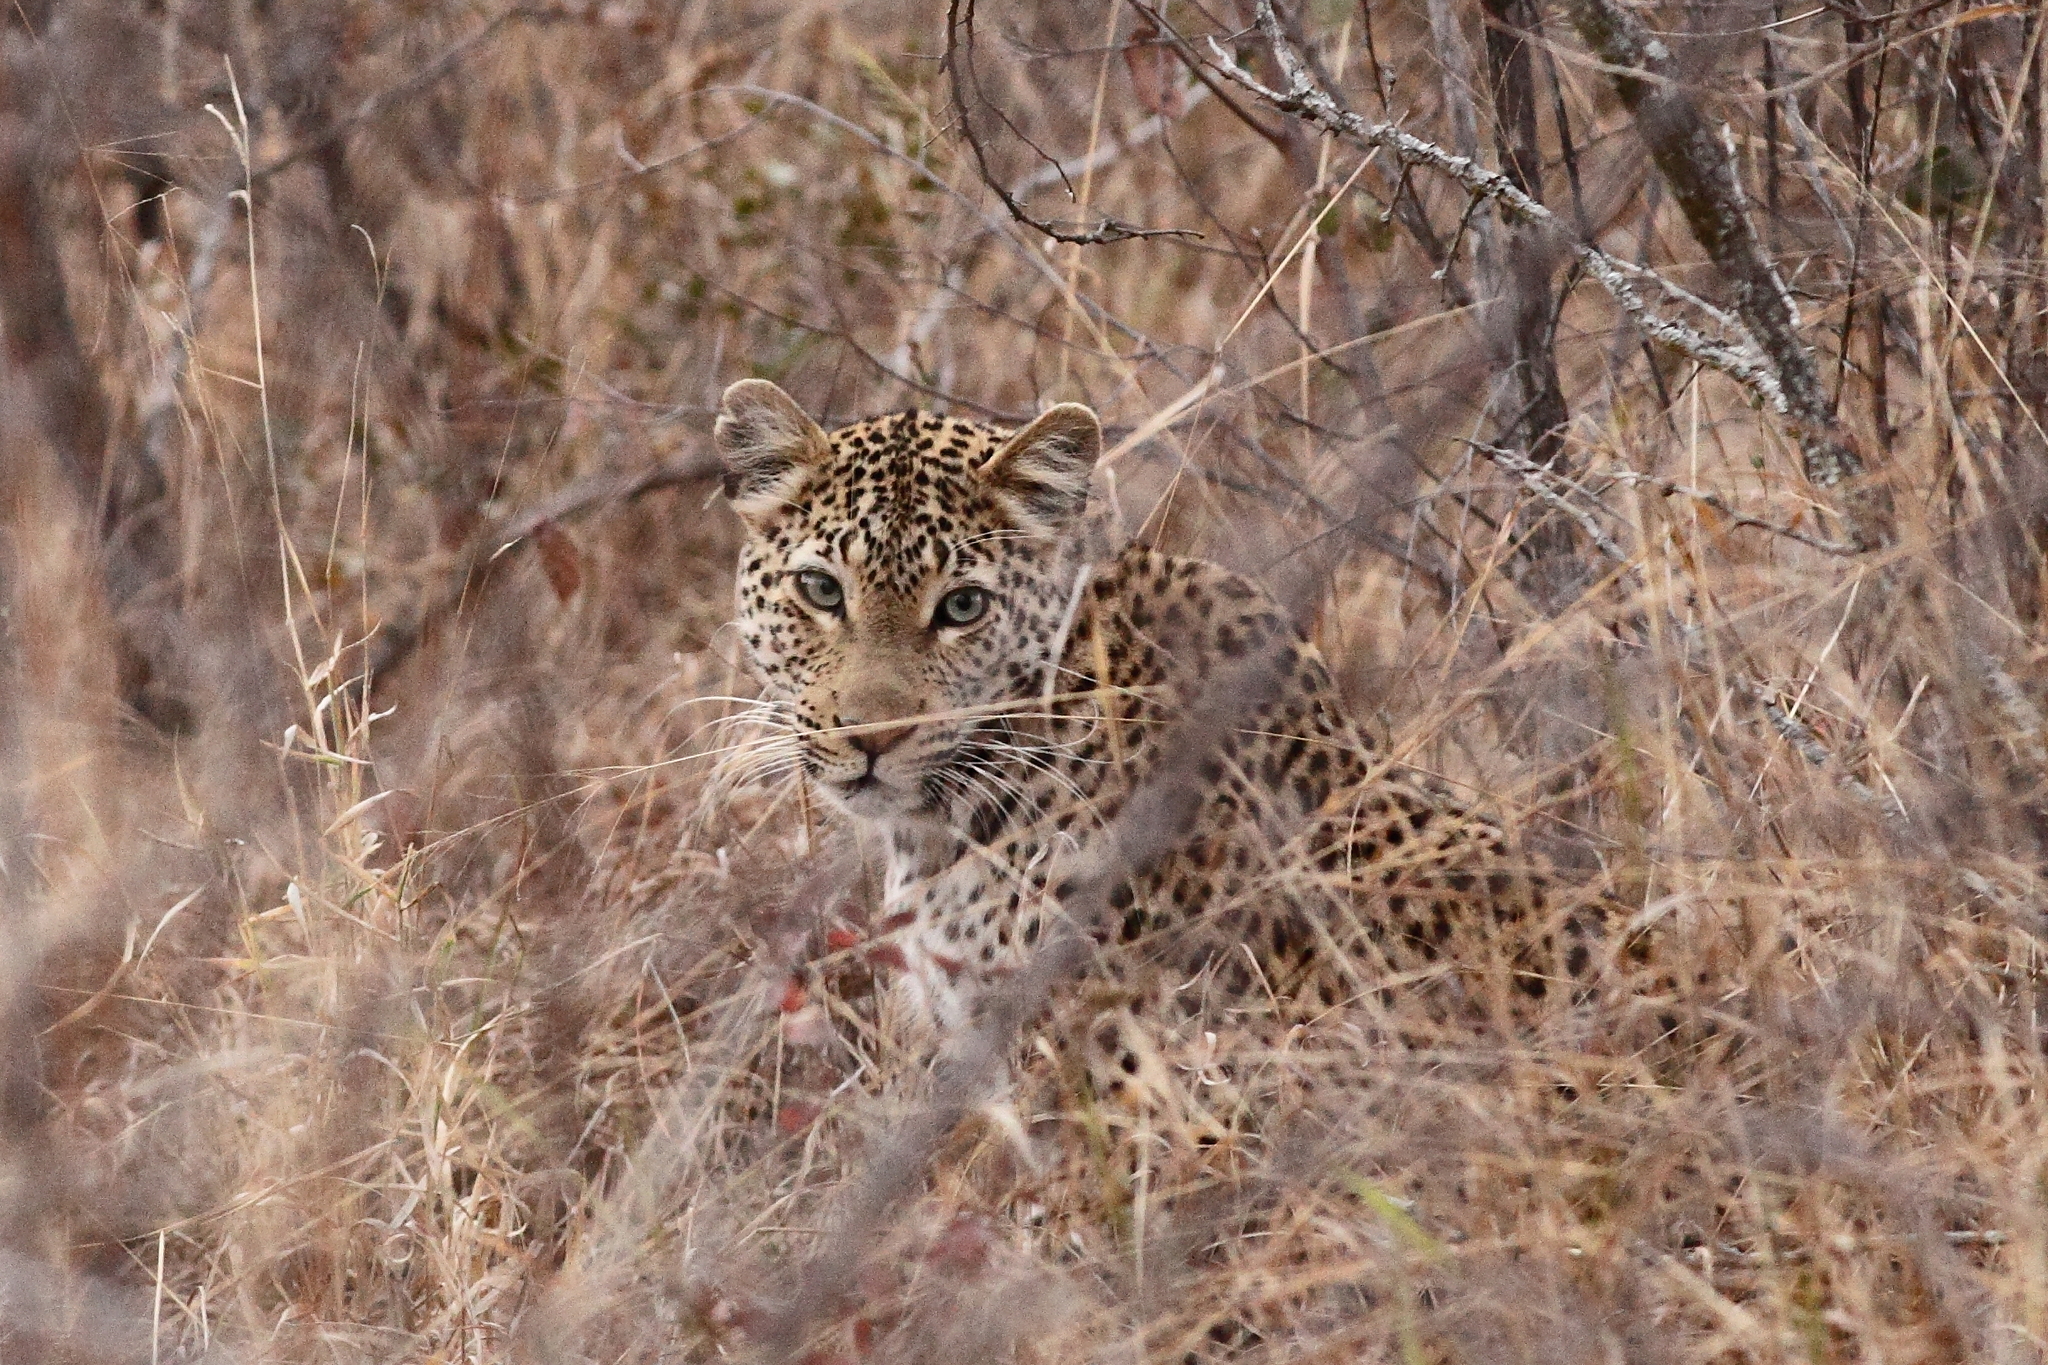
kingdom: Animalia
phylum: Chordata
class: Mammalia
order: Carnivora
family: Felidae
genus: Panthera
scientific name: Panthera pardus
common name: Leopard
